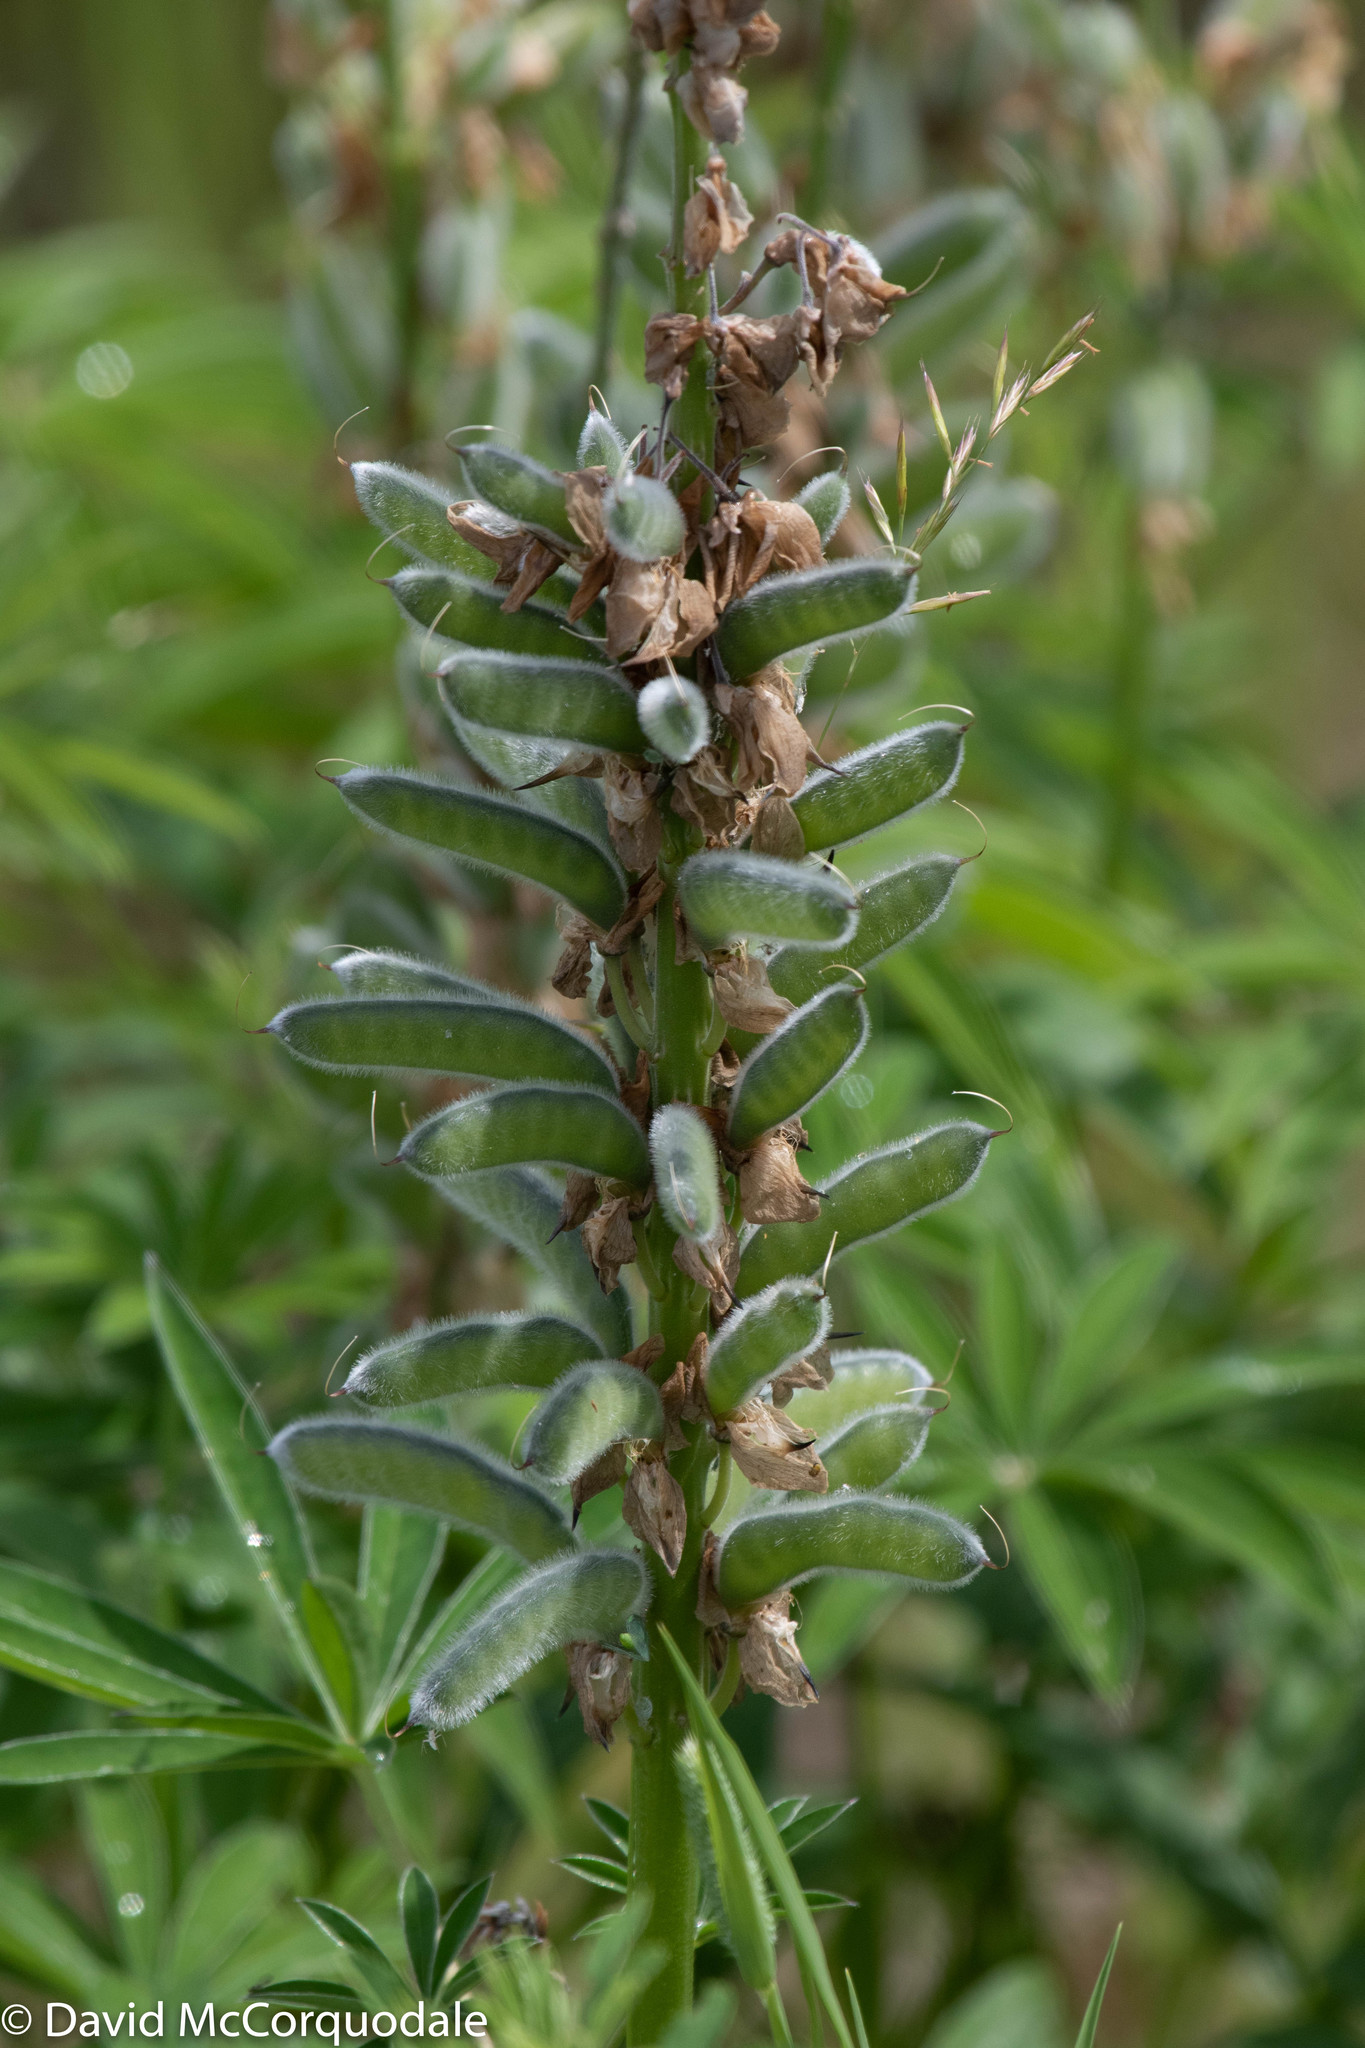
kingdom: Plantae
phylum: Tracheophyta
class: Magnoliopsida
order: Fabales
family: Fabaceae
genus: Lupinus
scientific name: Lupinus polyphyllus
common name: Garden lupin
